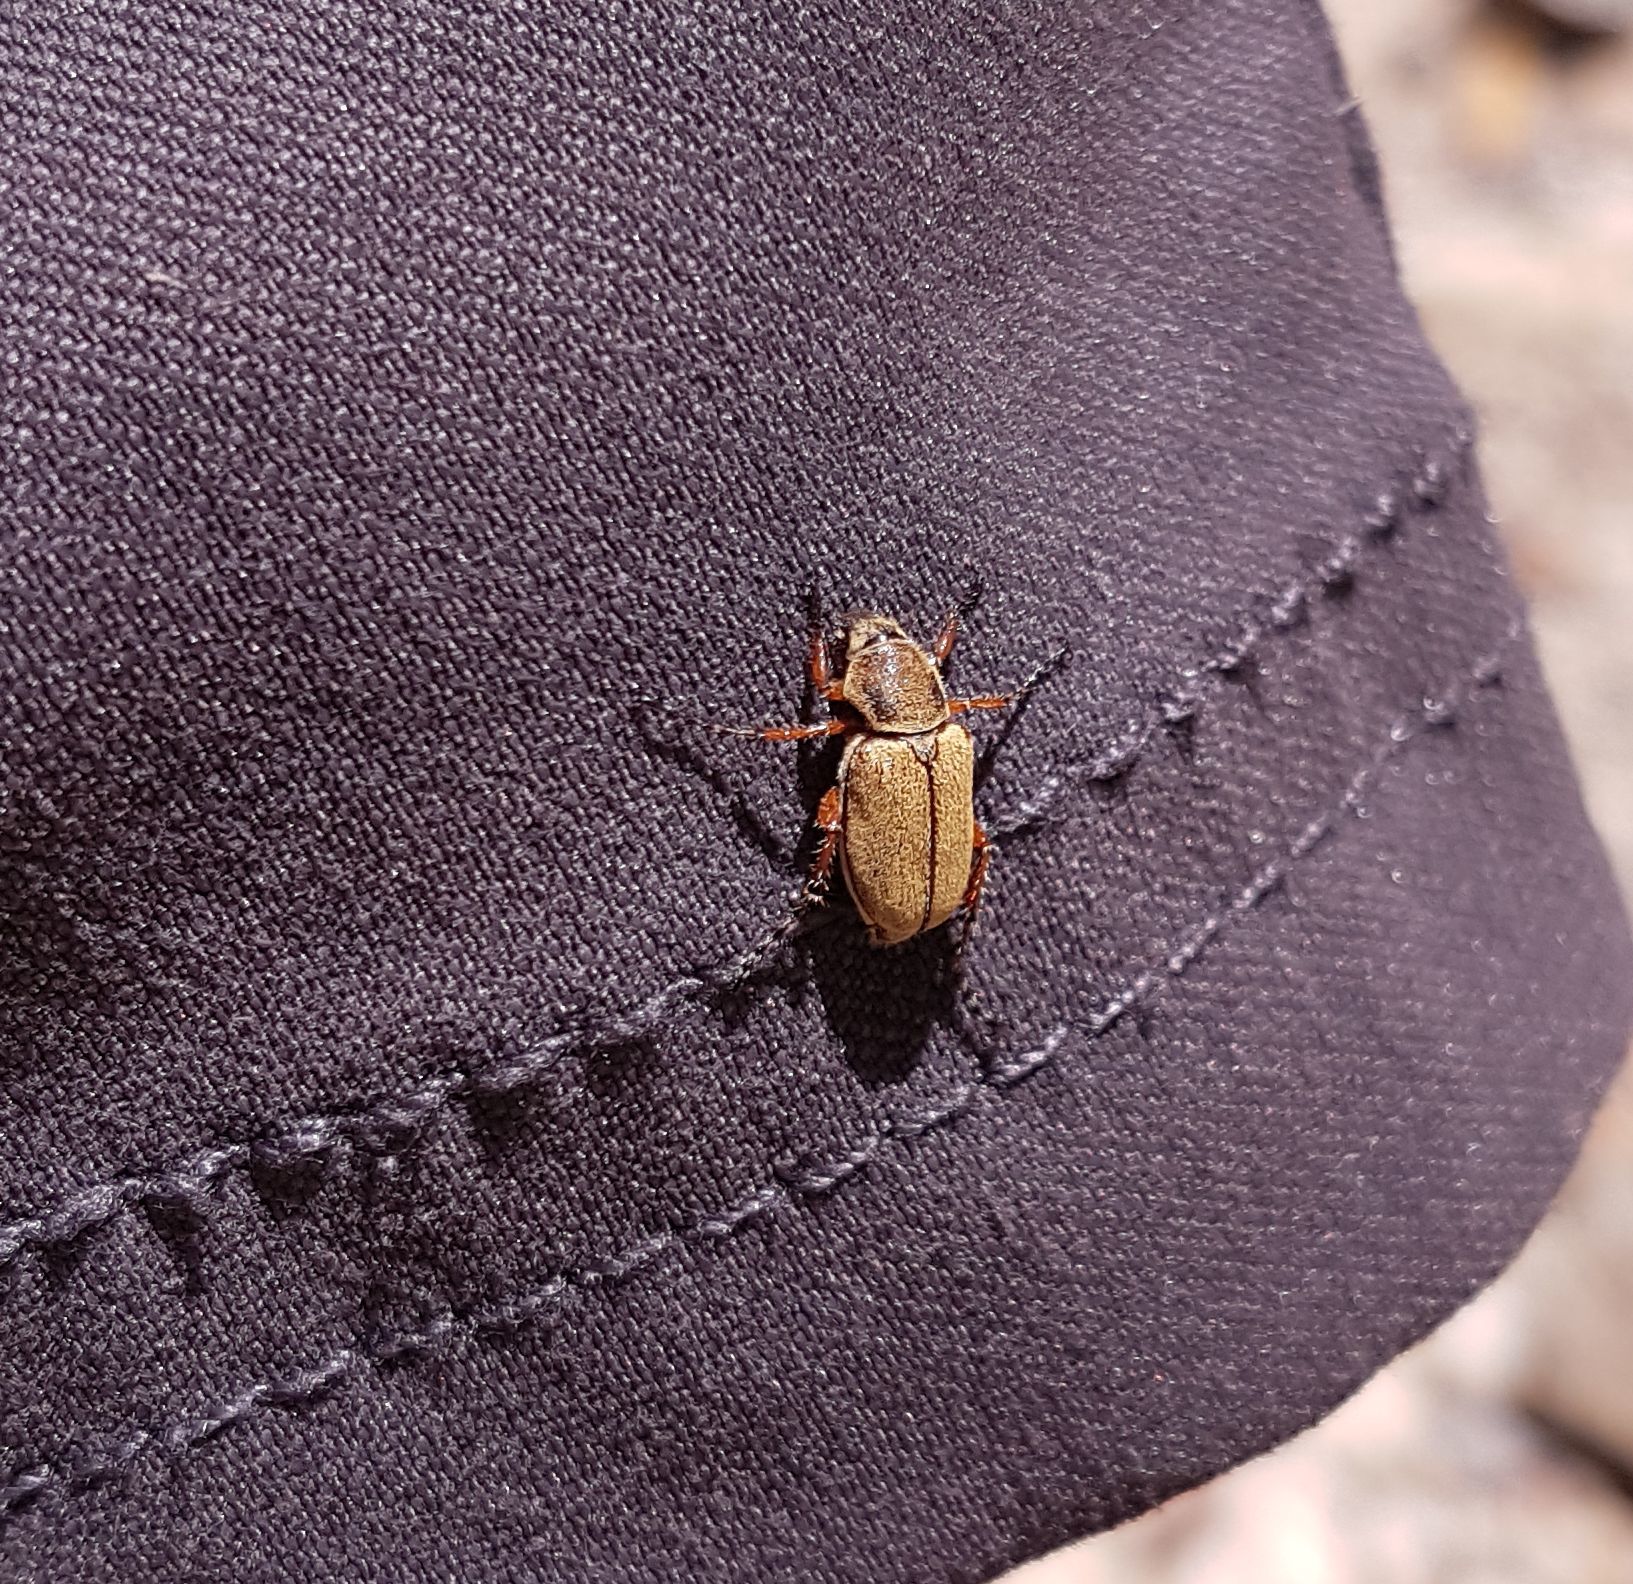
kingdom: Animalia
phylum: Arthropoda
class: Insecta
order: Coleoptera
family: Scarabaeidae
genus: Macrodactylus
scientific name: Macrodactylus subspinosus
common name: American rose chafer
